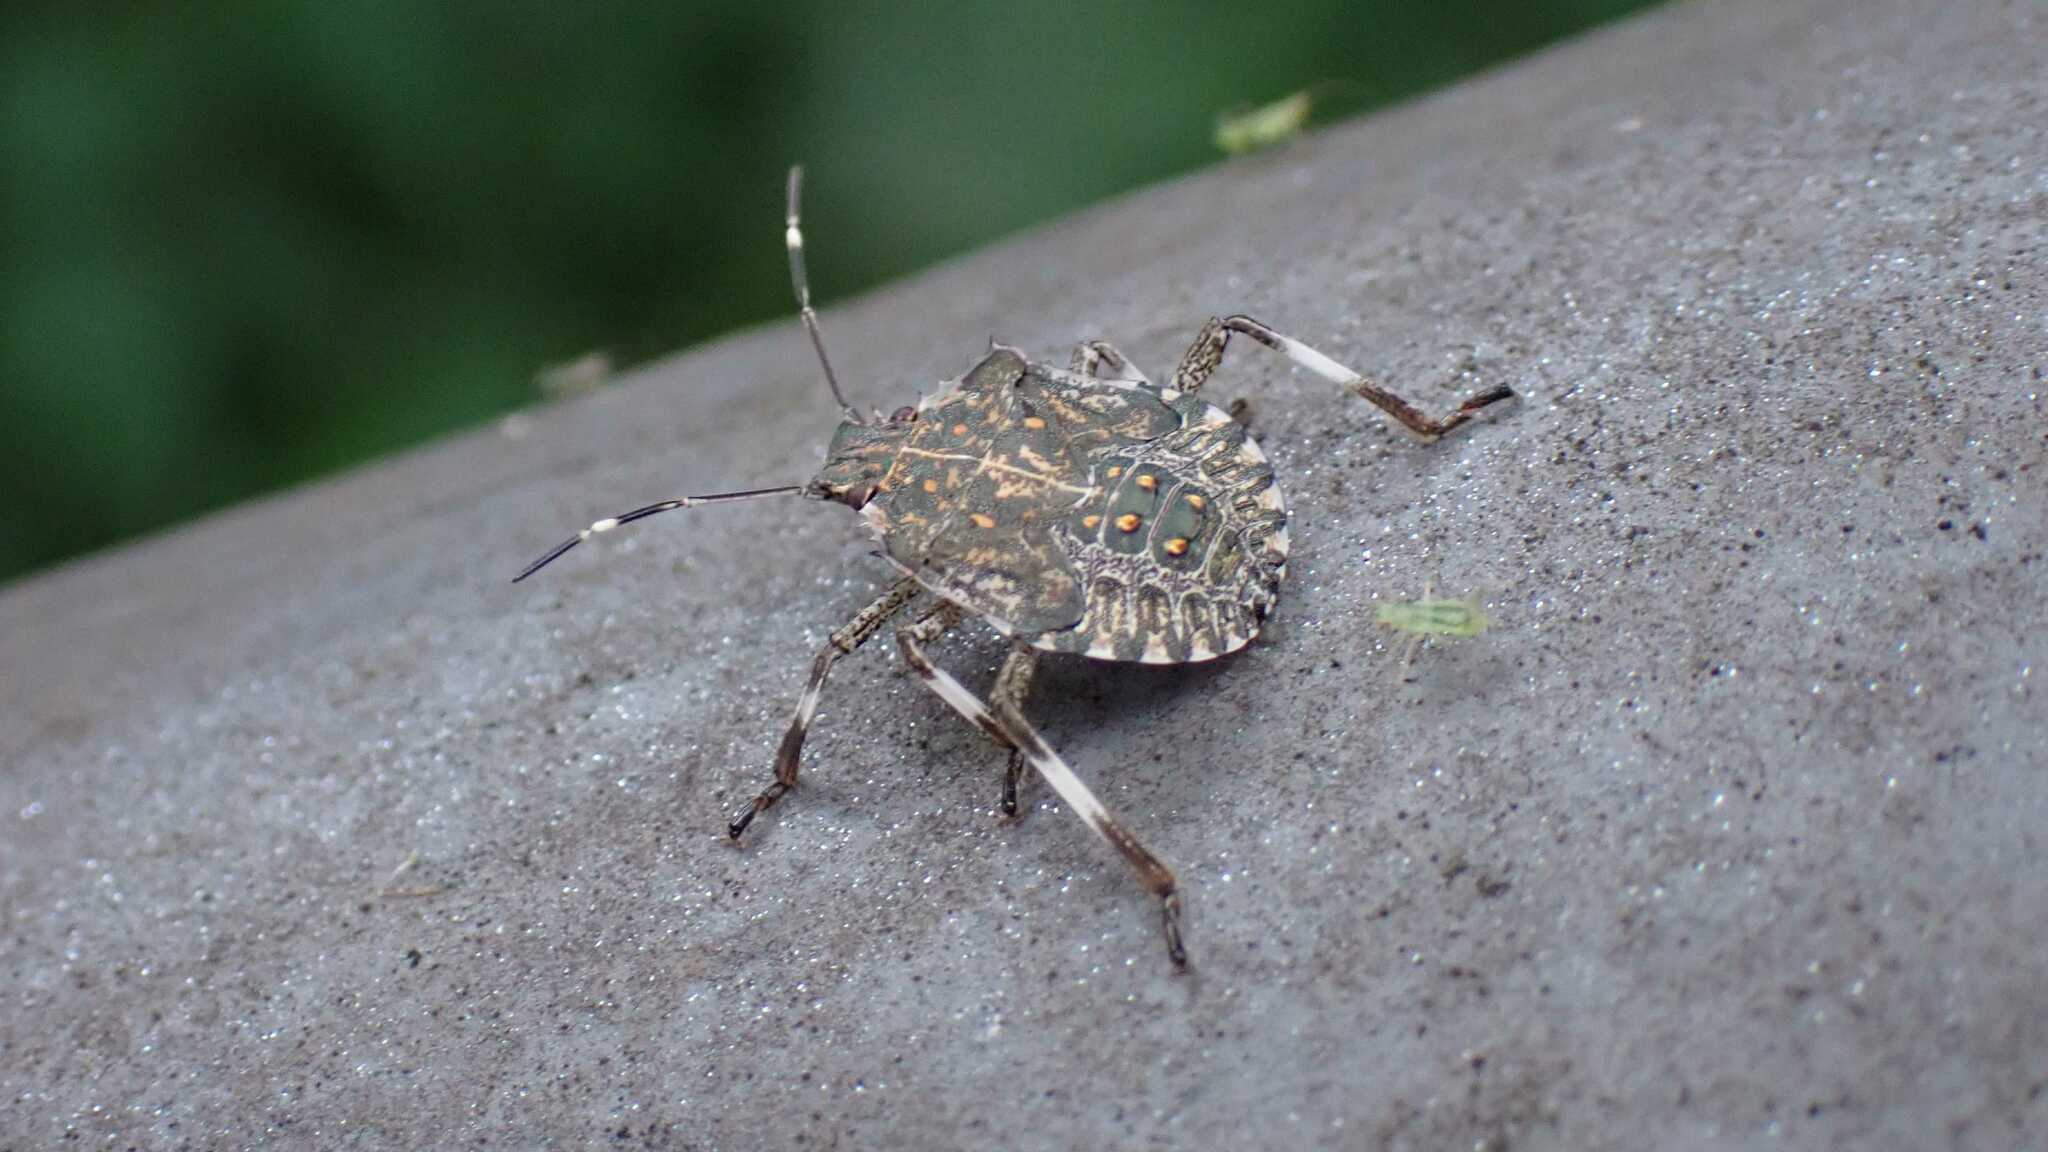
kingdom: Animalia
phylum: Arthropoda
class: Insecta
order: Hemiptera
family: Pentatomidae
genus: Halyomorpha
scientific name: Halyomorpha halys
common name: Brown marmorated stink bug
